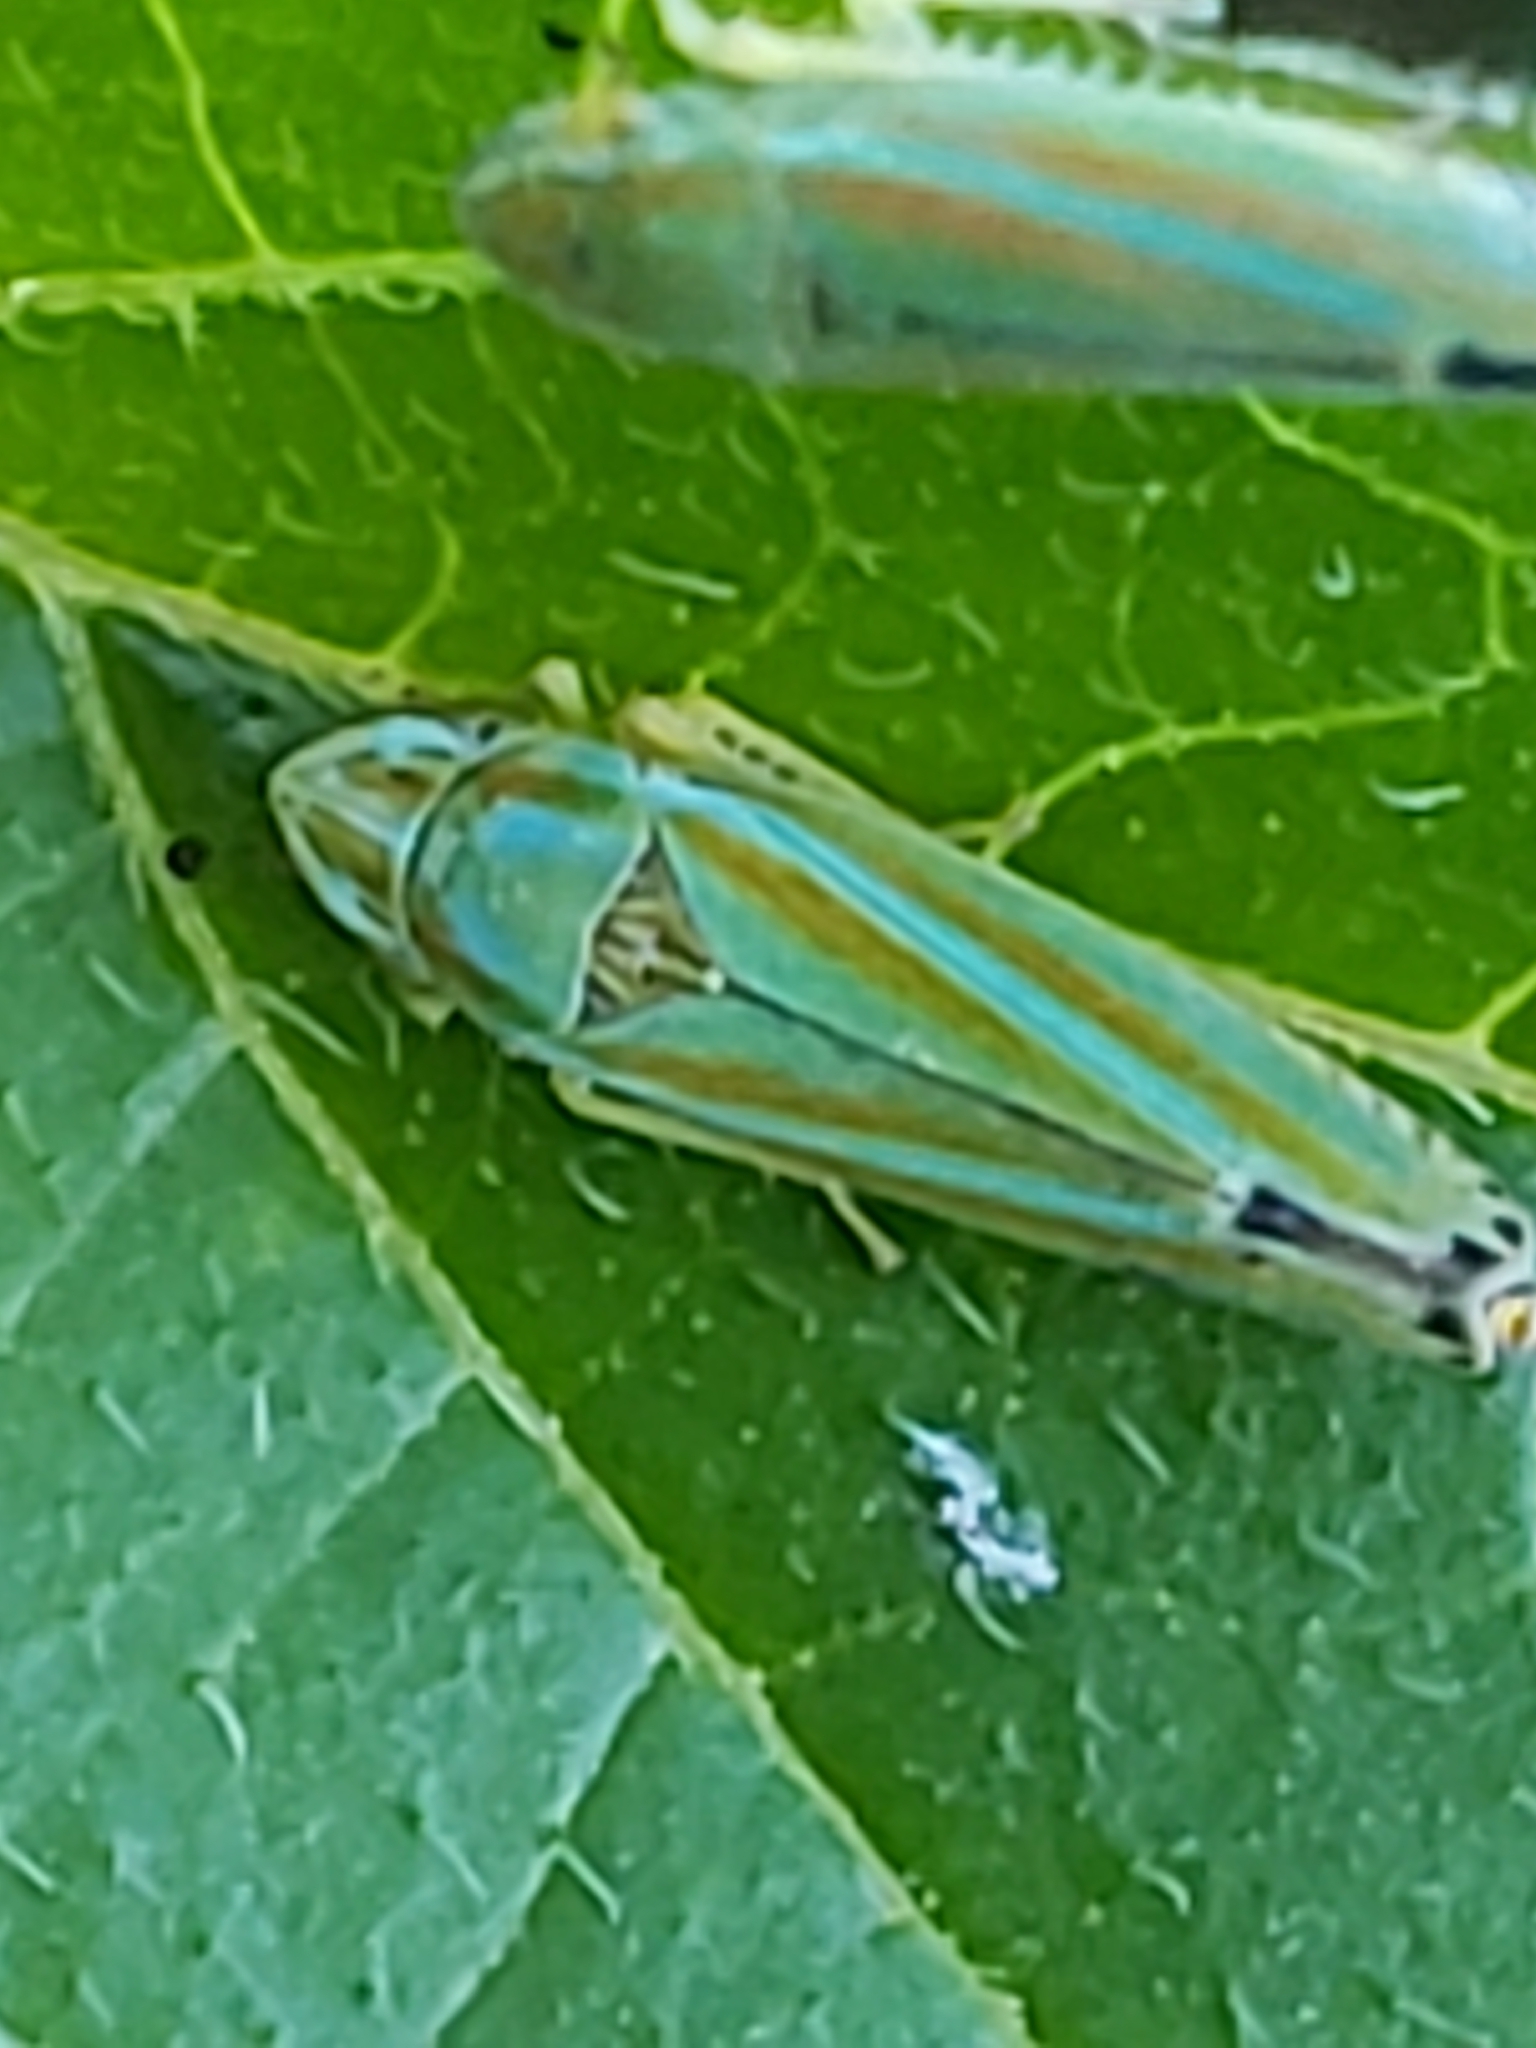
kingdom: Animalia
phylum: Arthropoda
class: Insecta
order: Hemiptera
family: Cicadellidae
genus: Graphocephala
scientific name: Graphocephala versuta
